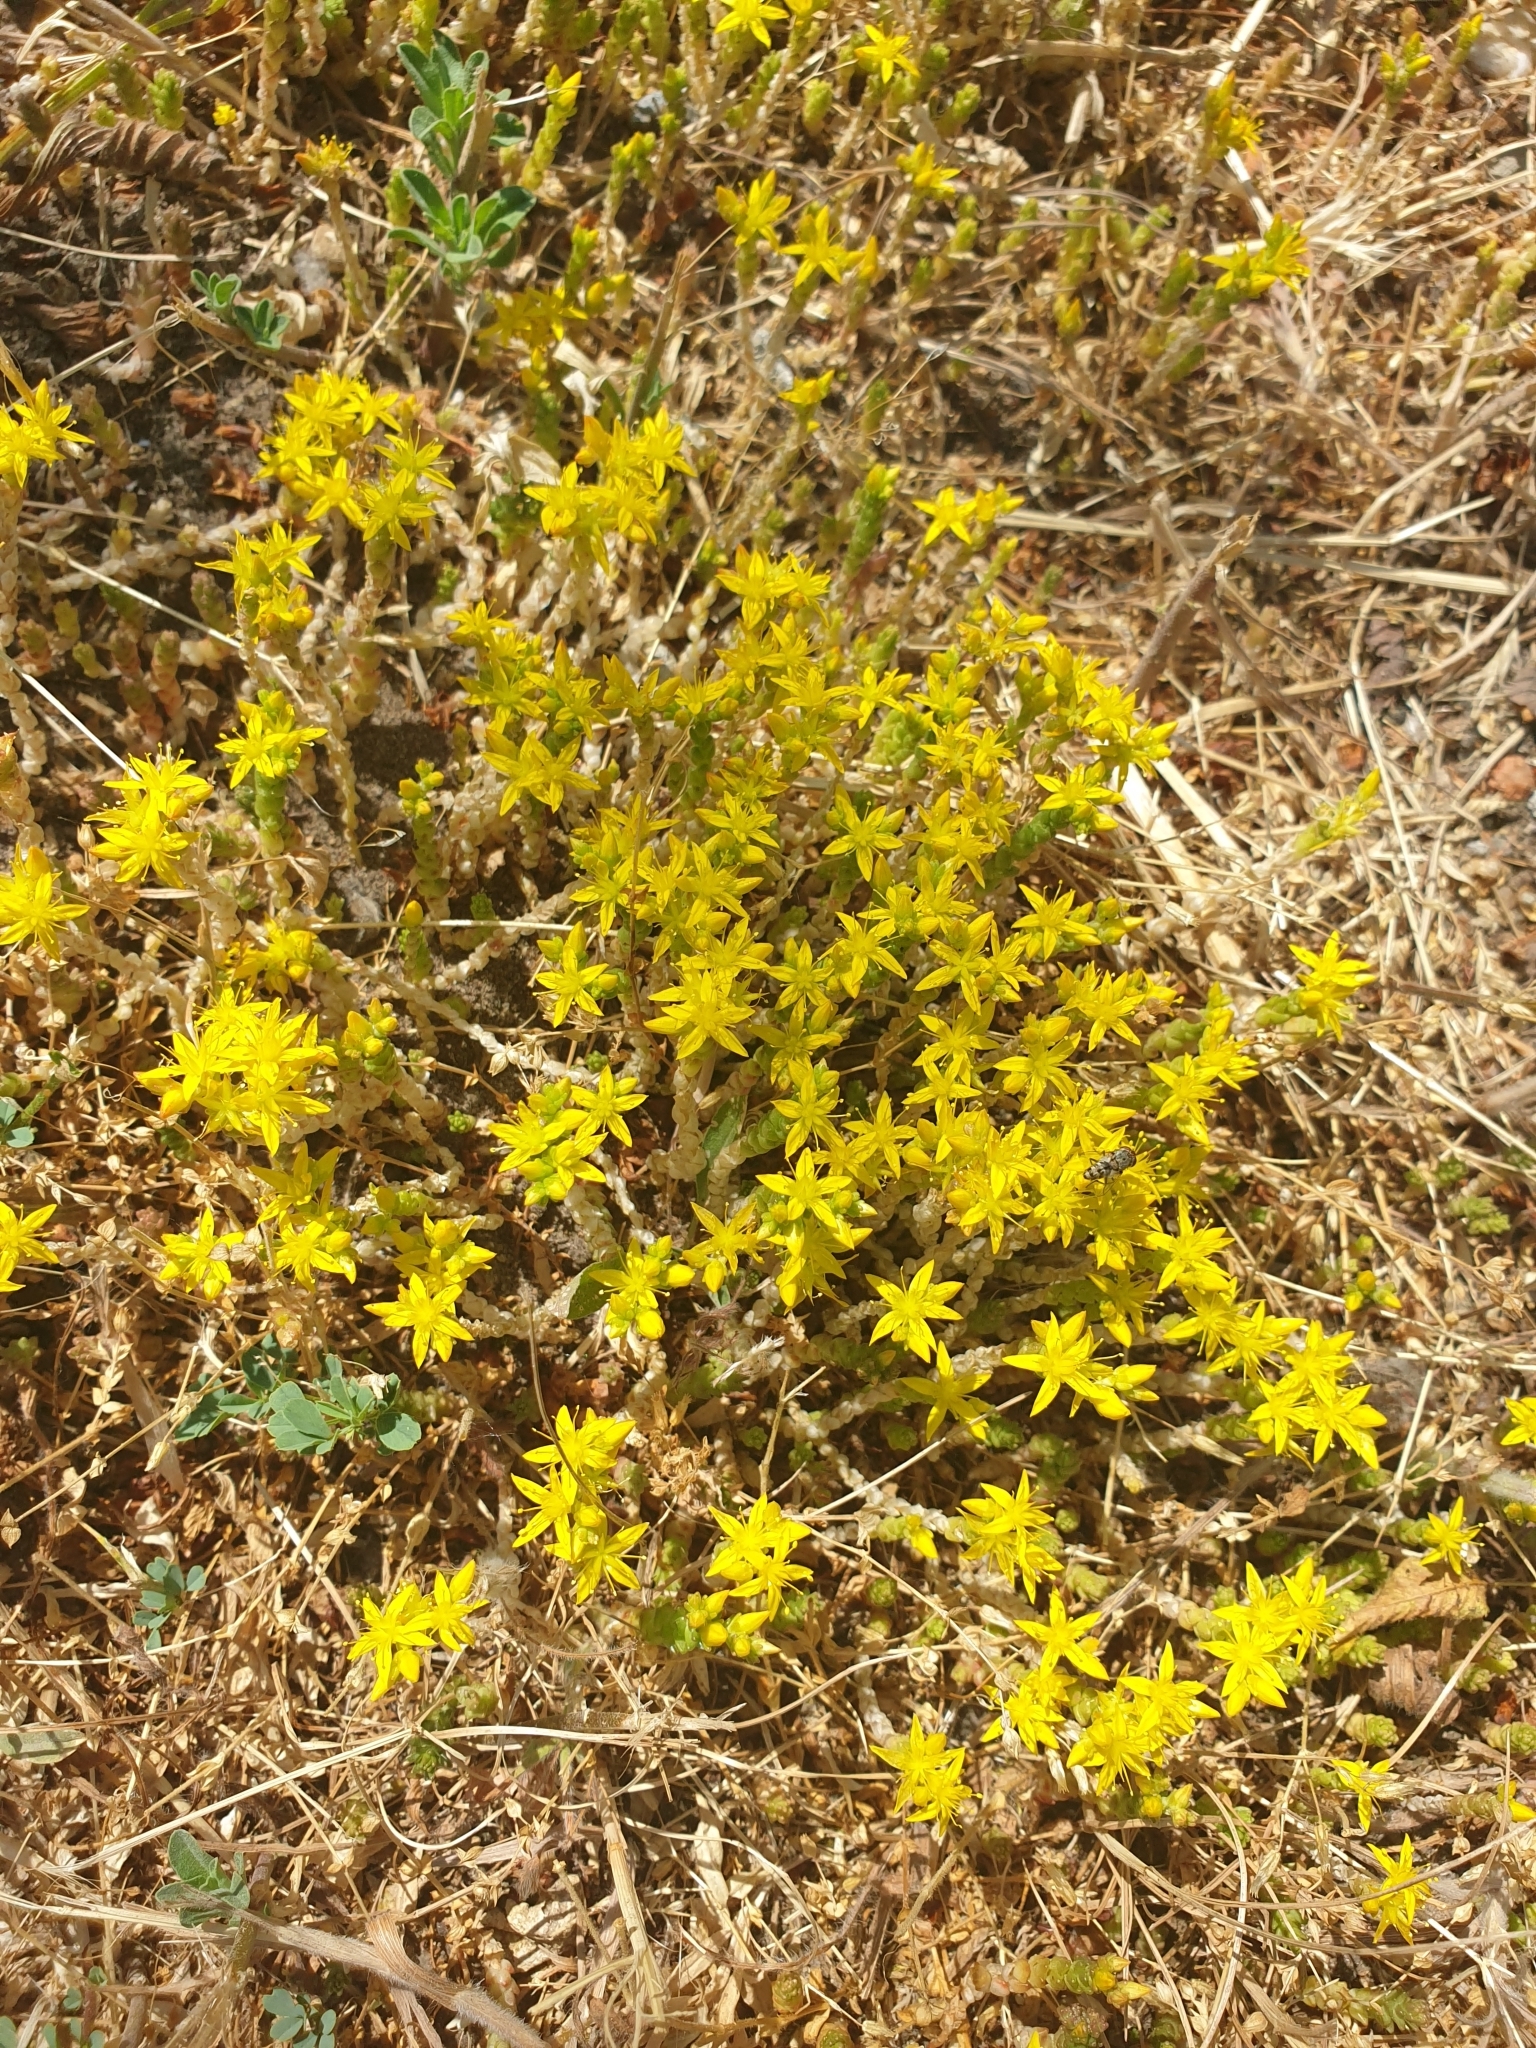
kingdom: Plantae
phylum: Tracheophyta
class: Magnoliopsida
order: Saxifragales
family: Crassulaceae
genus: Sedum
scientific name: Sedum acre
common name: Biting stonecrop
